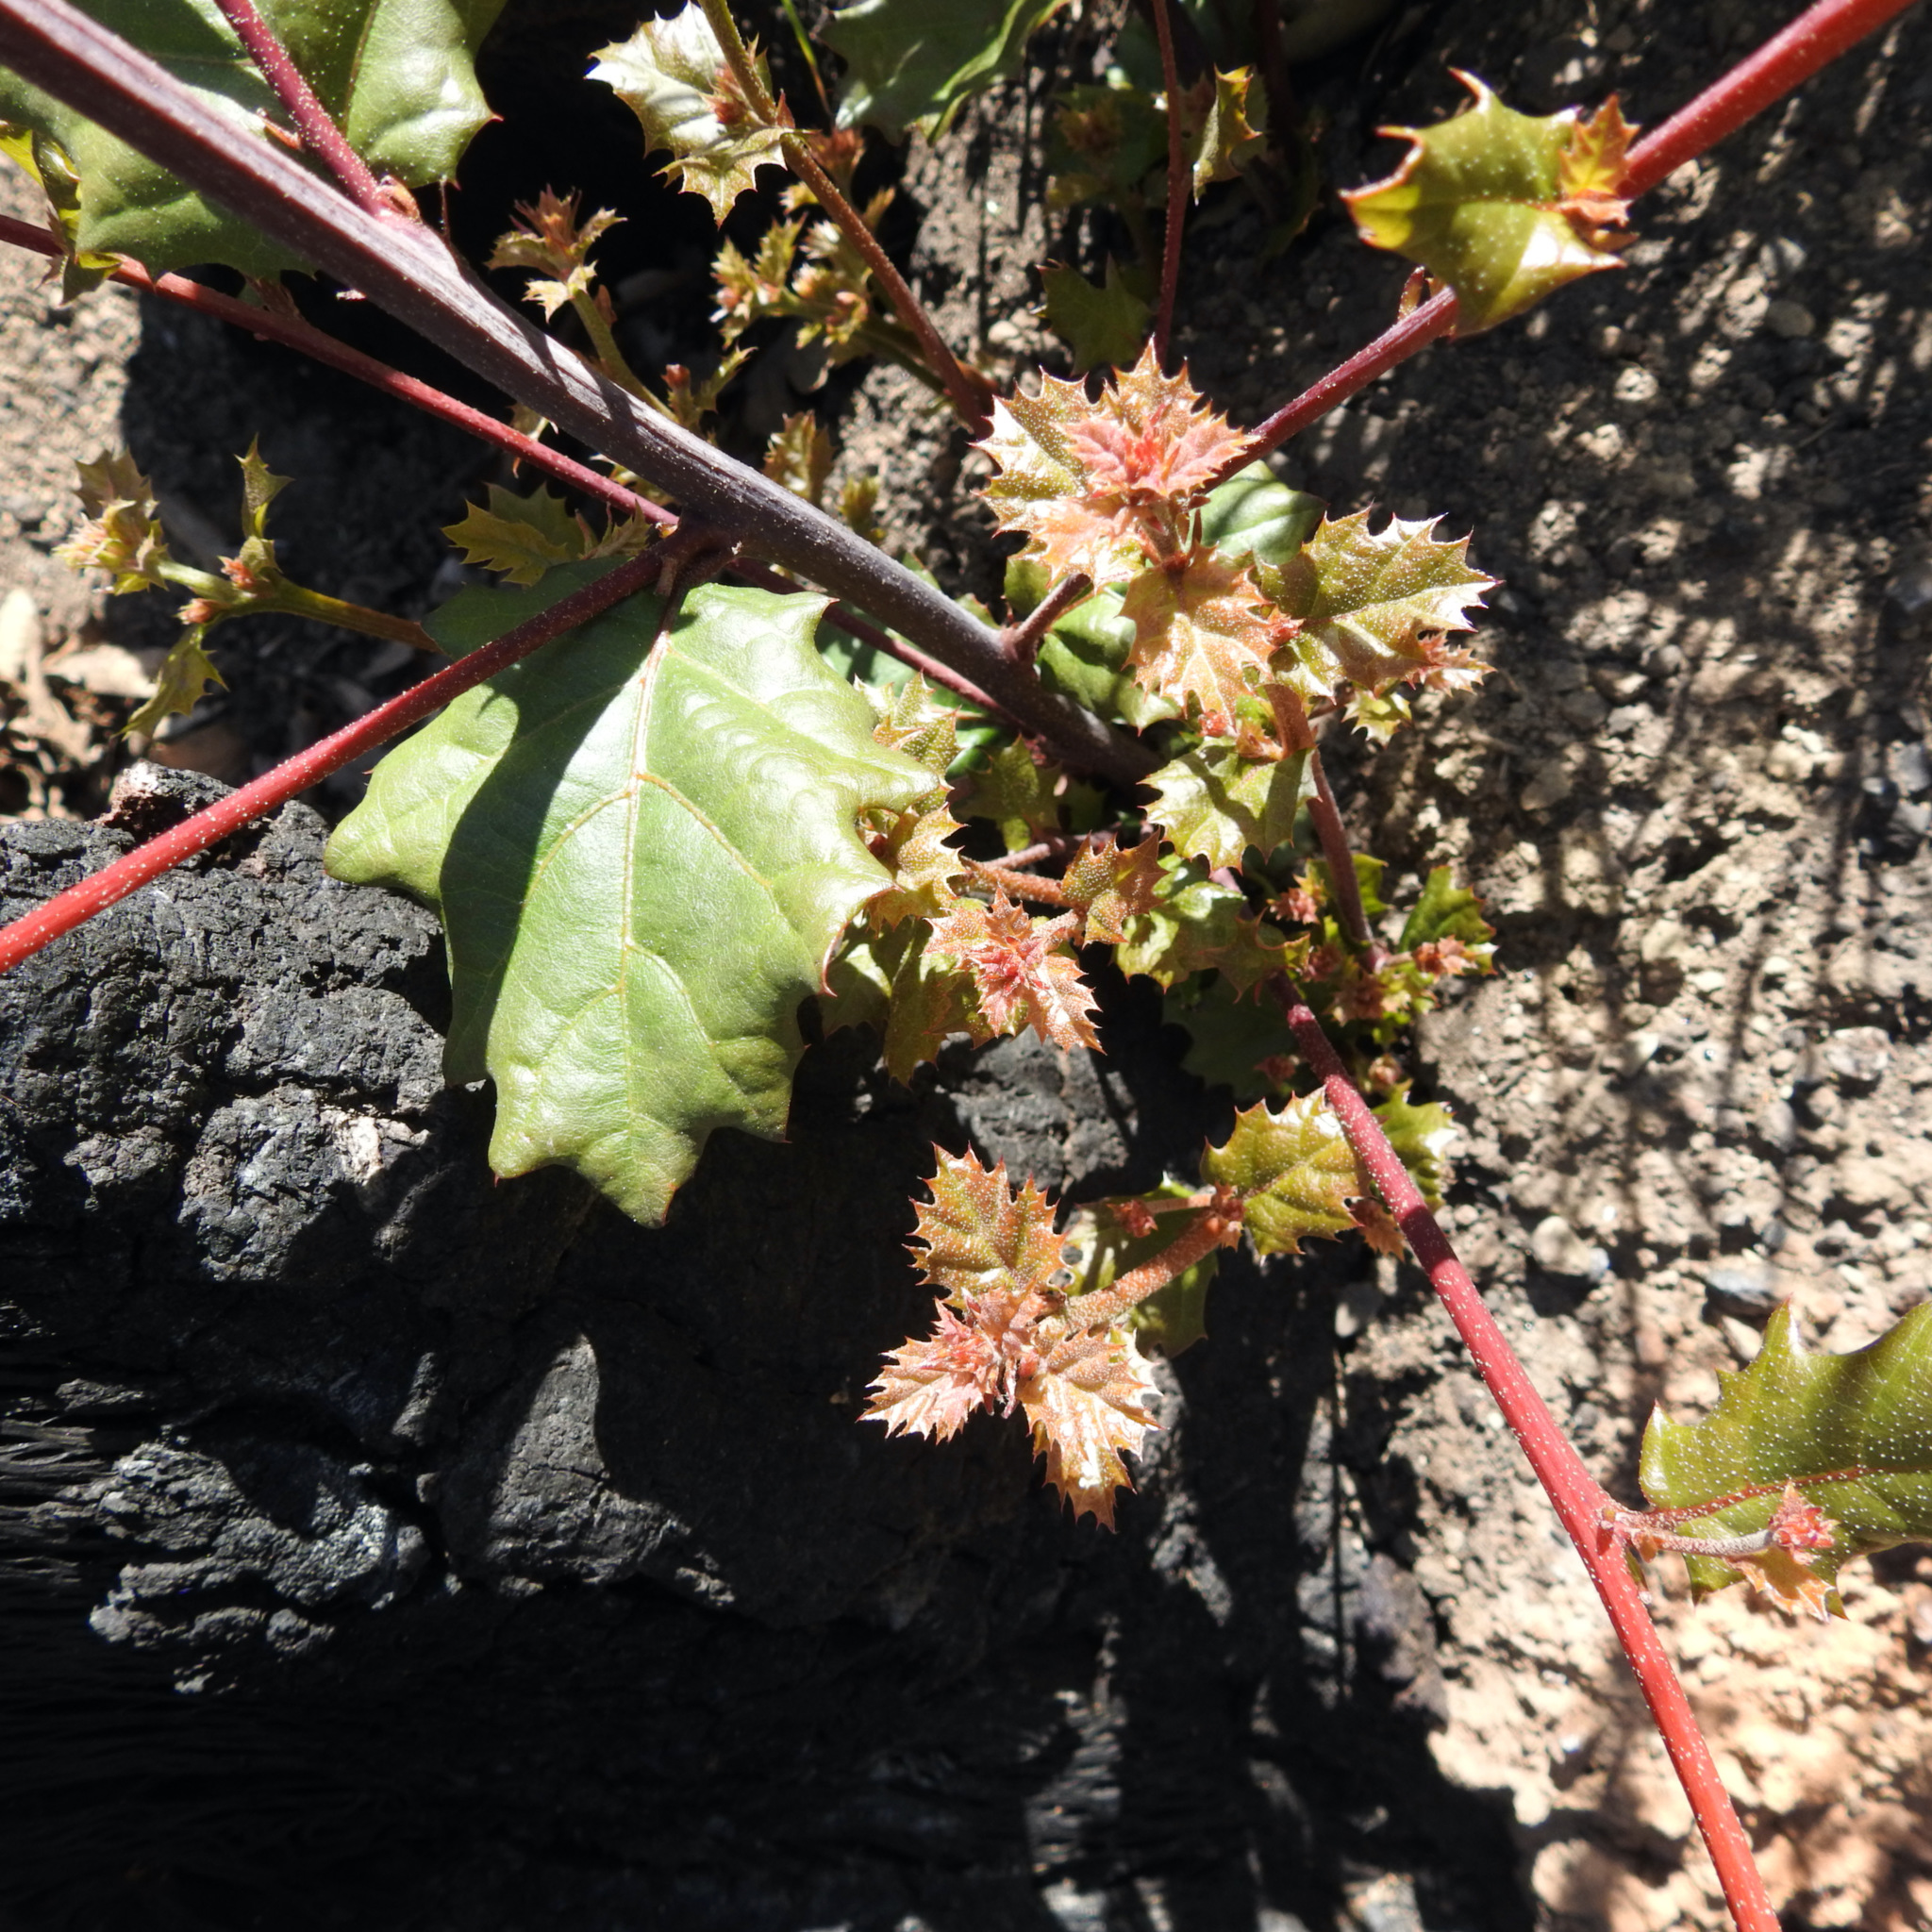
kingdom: Plantae
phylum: Tracheophyta
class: Magnoliopsida
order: Fagales
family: Fagaceae
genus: Quercus
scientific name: Quercus agrifolia
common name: California live oak
